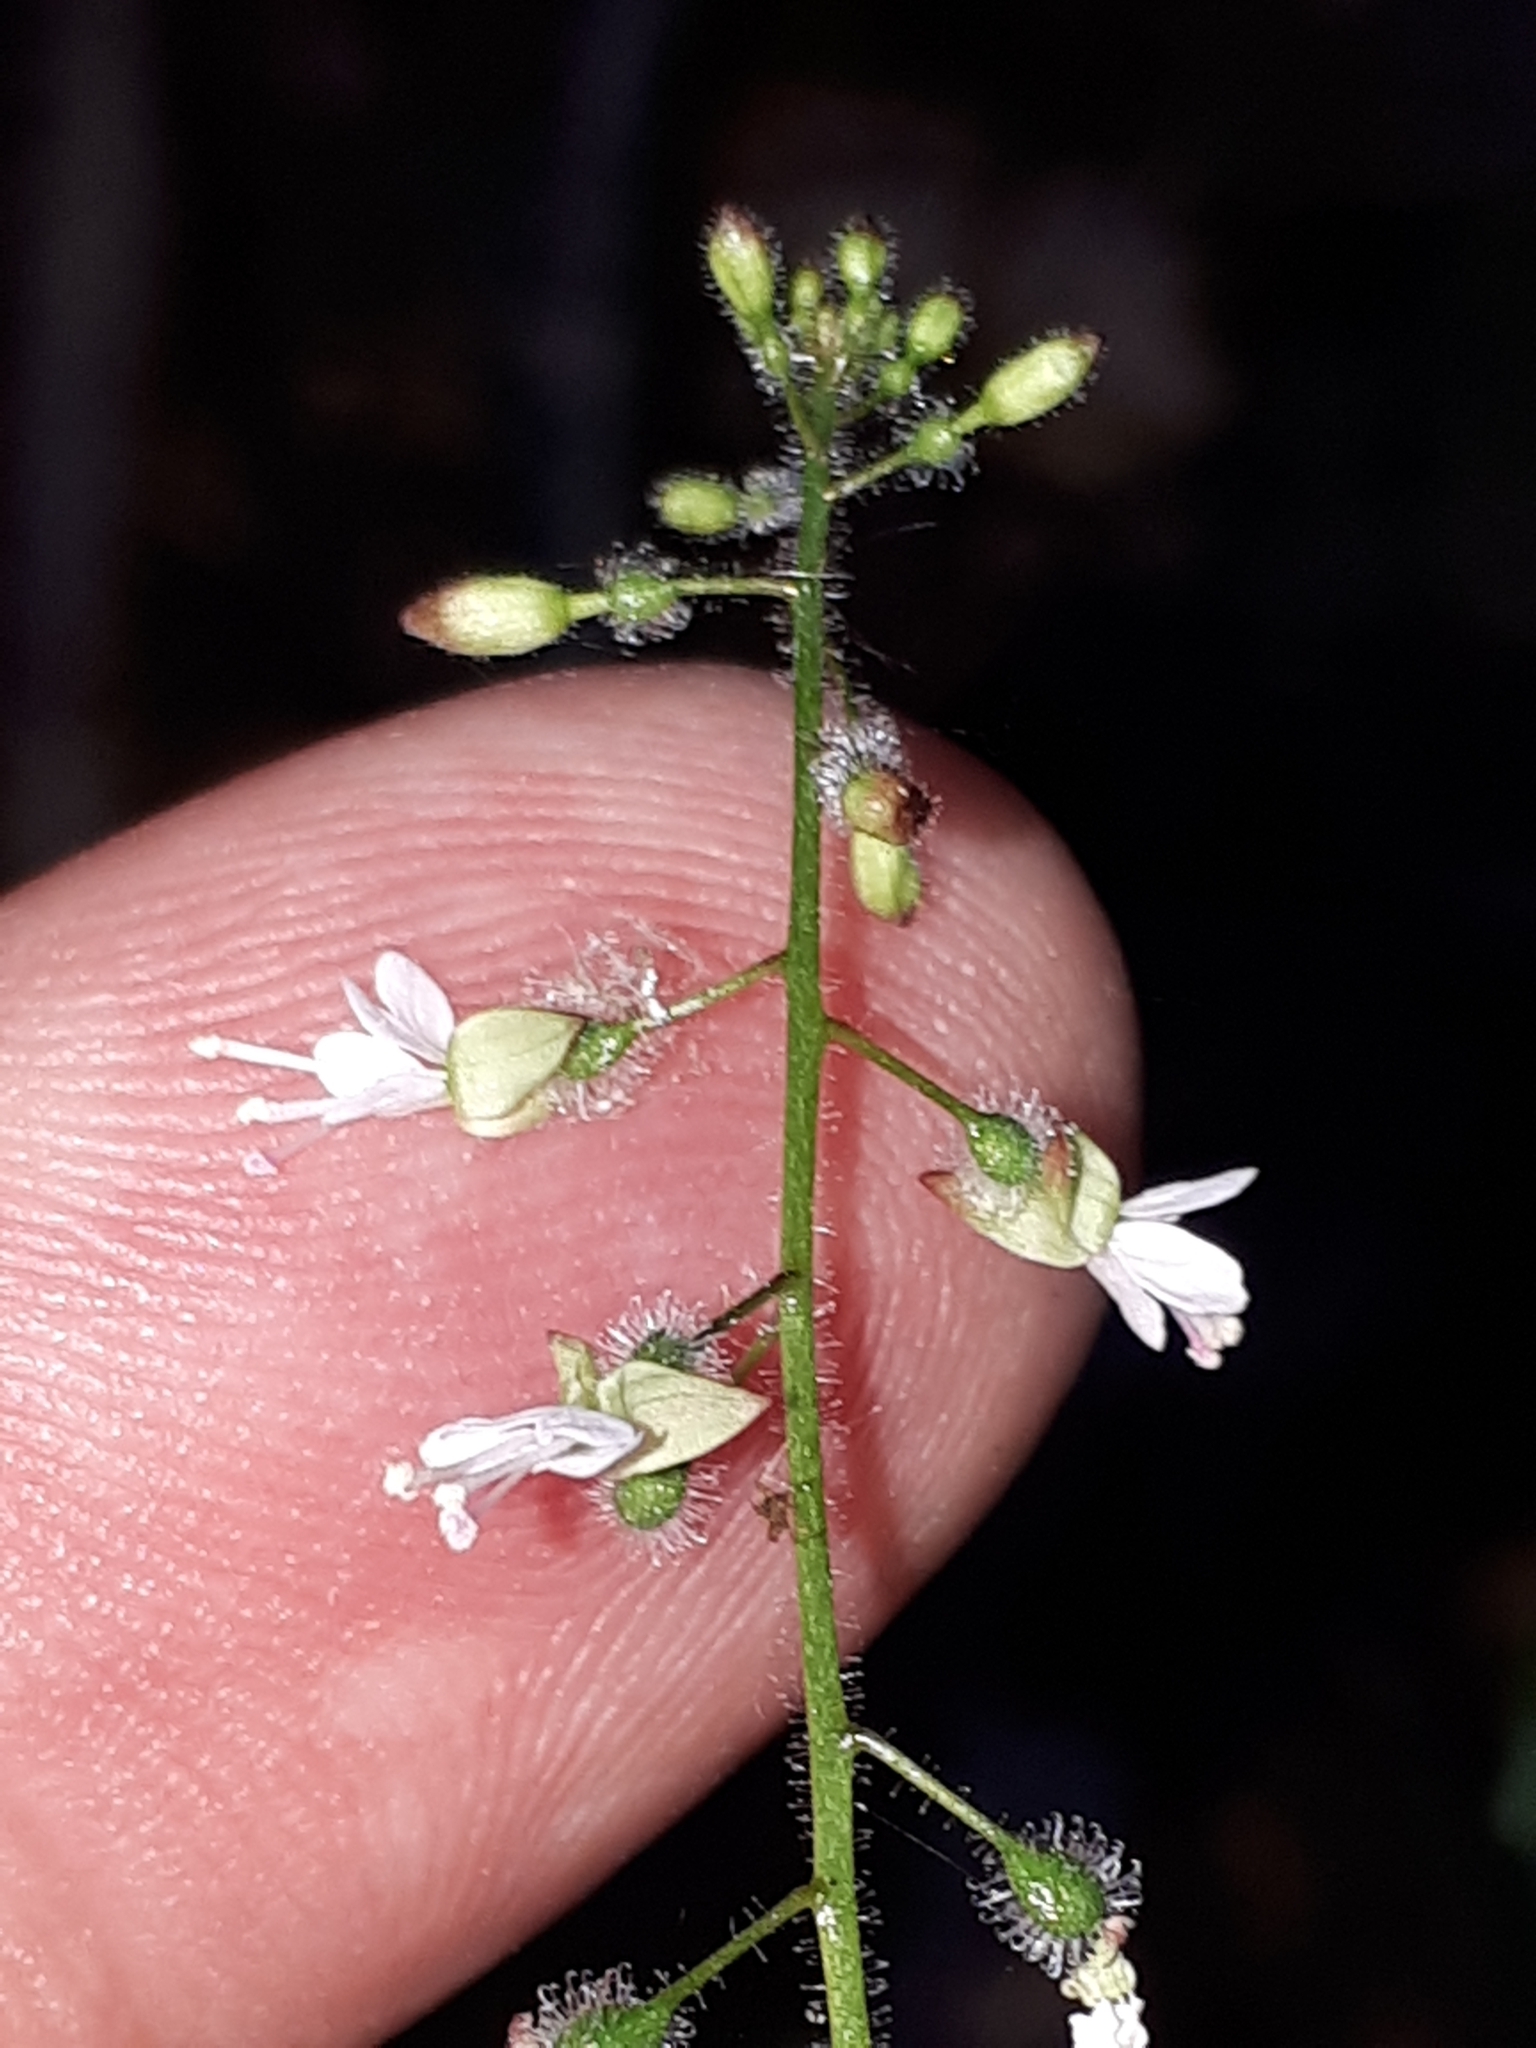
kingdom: Plantae
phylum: Tracheophyta
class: Magnoliopsida
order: Myrtales
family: Onagraceae
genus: Circaea
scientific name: Circaea lutetiana
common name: Enchanter's-nightshade
